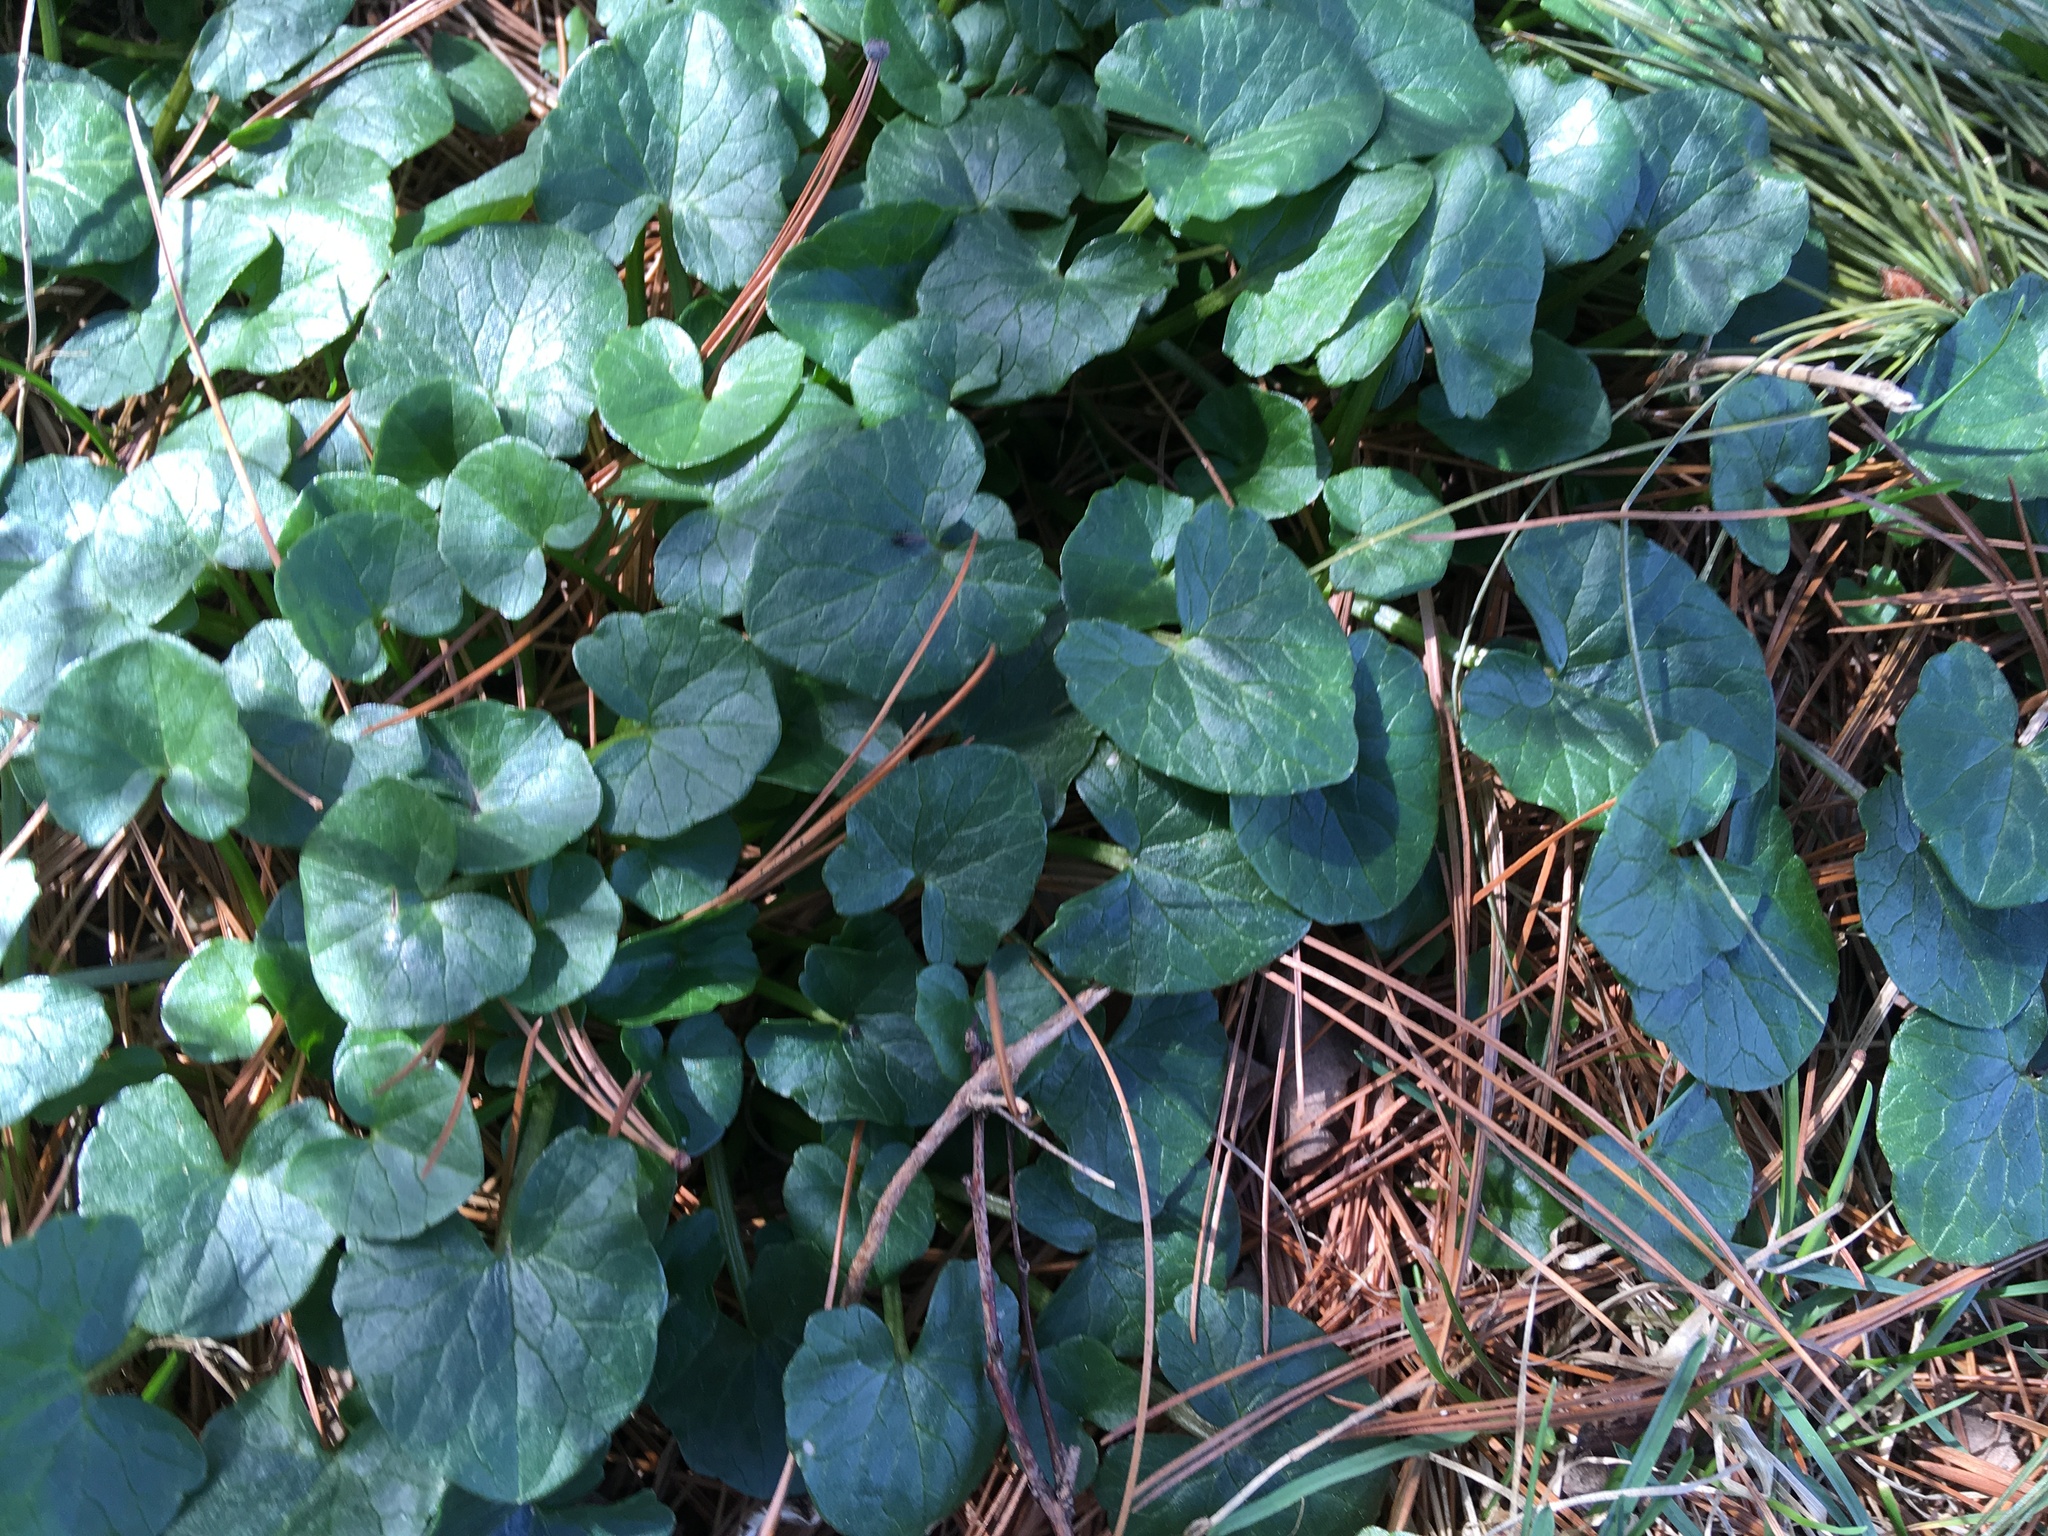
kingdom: Plantae
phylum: Tracheophyta
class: Magnoliopsida
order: Ranunculales
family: Ranunculaceae
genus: Ficaria
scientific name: Ficaria verna
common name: Lesser celandine
